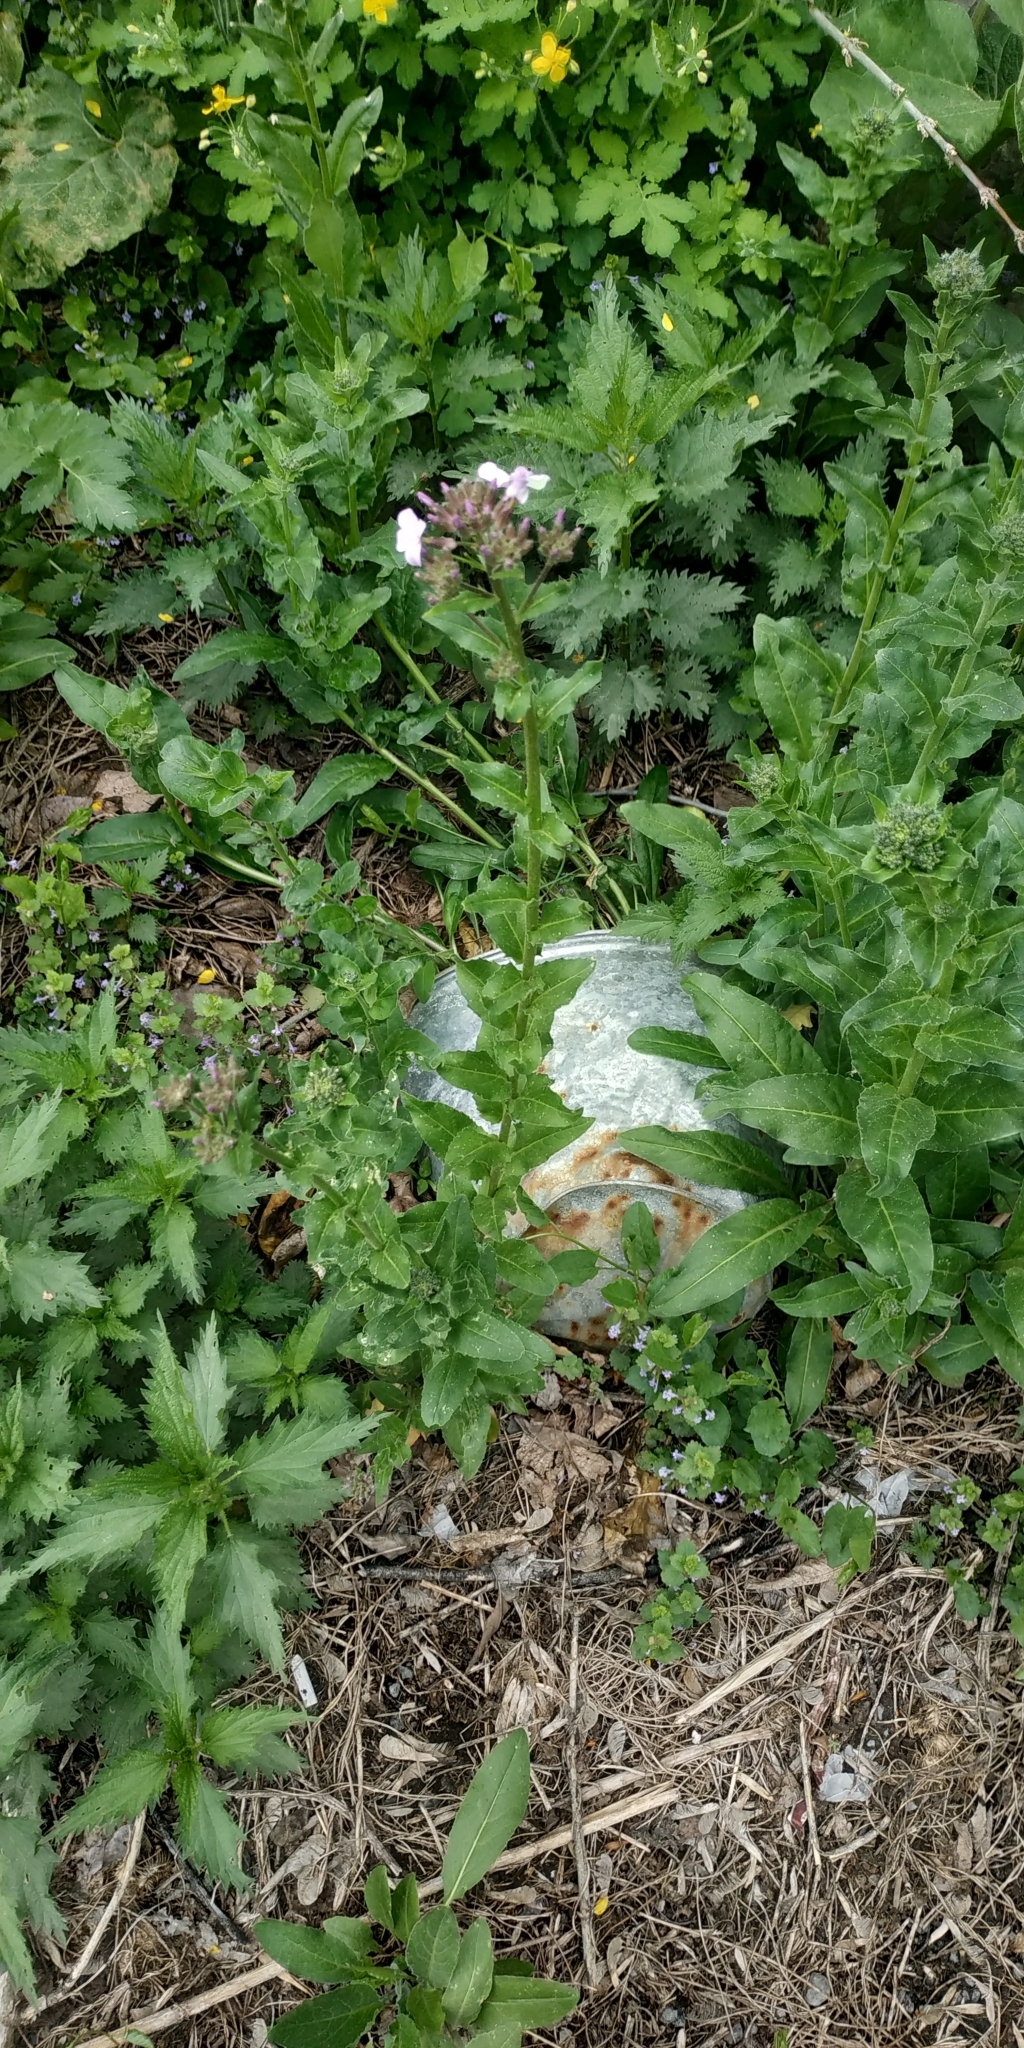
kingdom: Plantae
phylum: Tracheophyta
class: Magnoliopsida
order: Brassicales
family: Brassicaceae
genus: Hesperis
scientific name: Hesperis matronalis
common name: Dame's-violet
